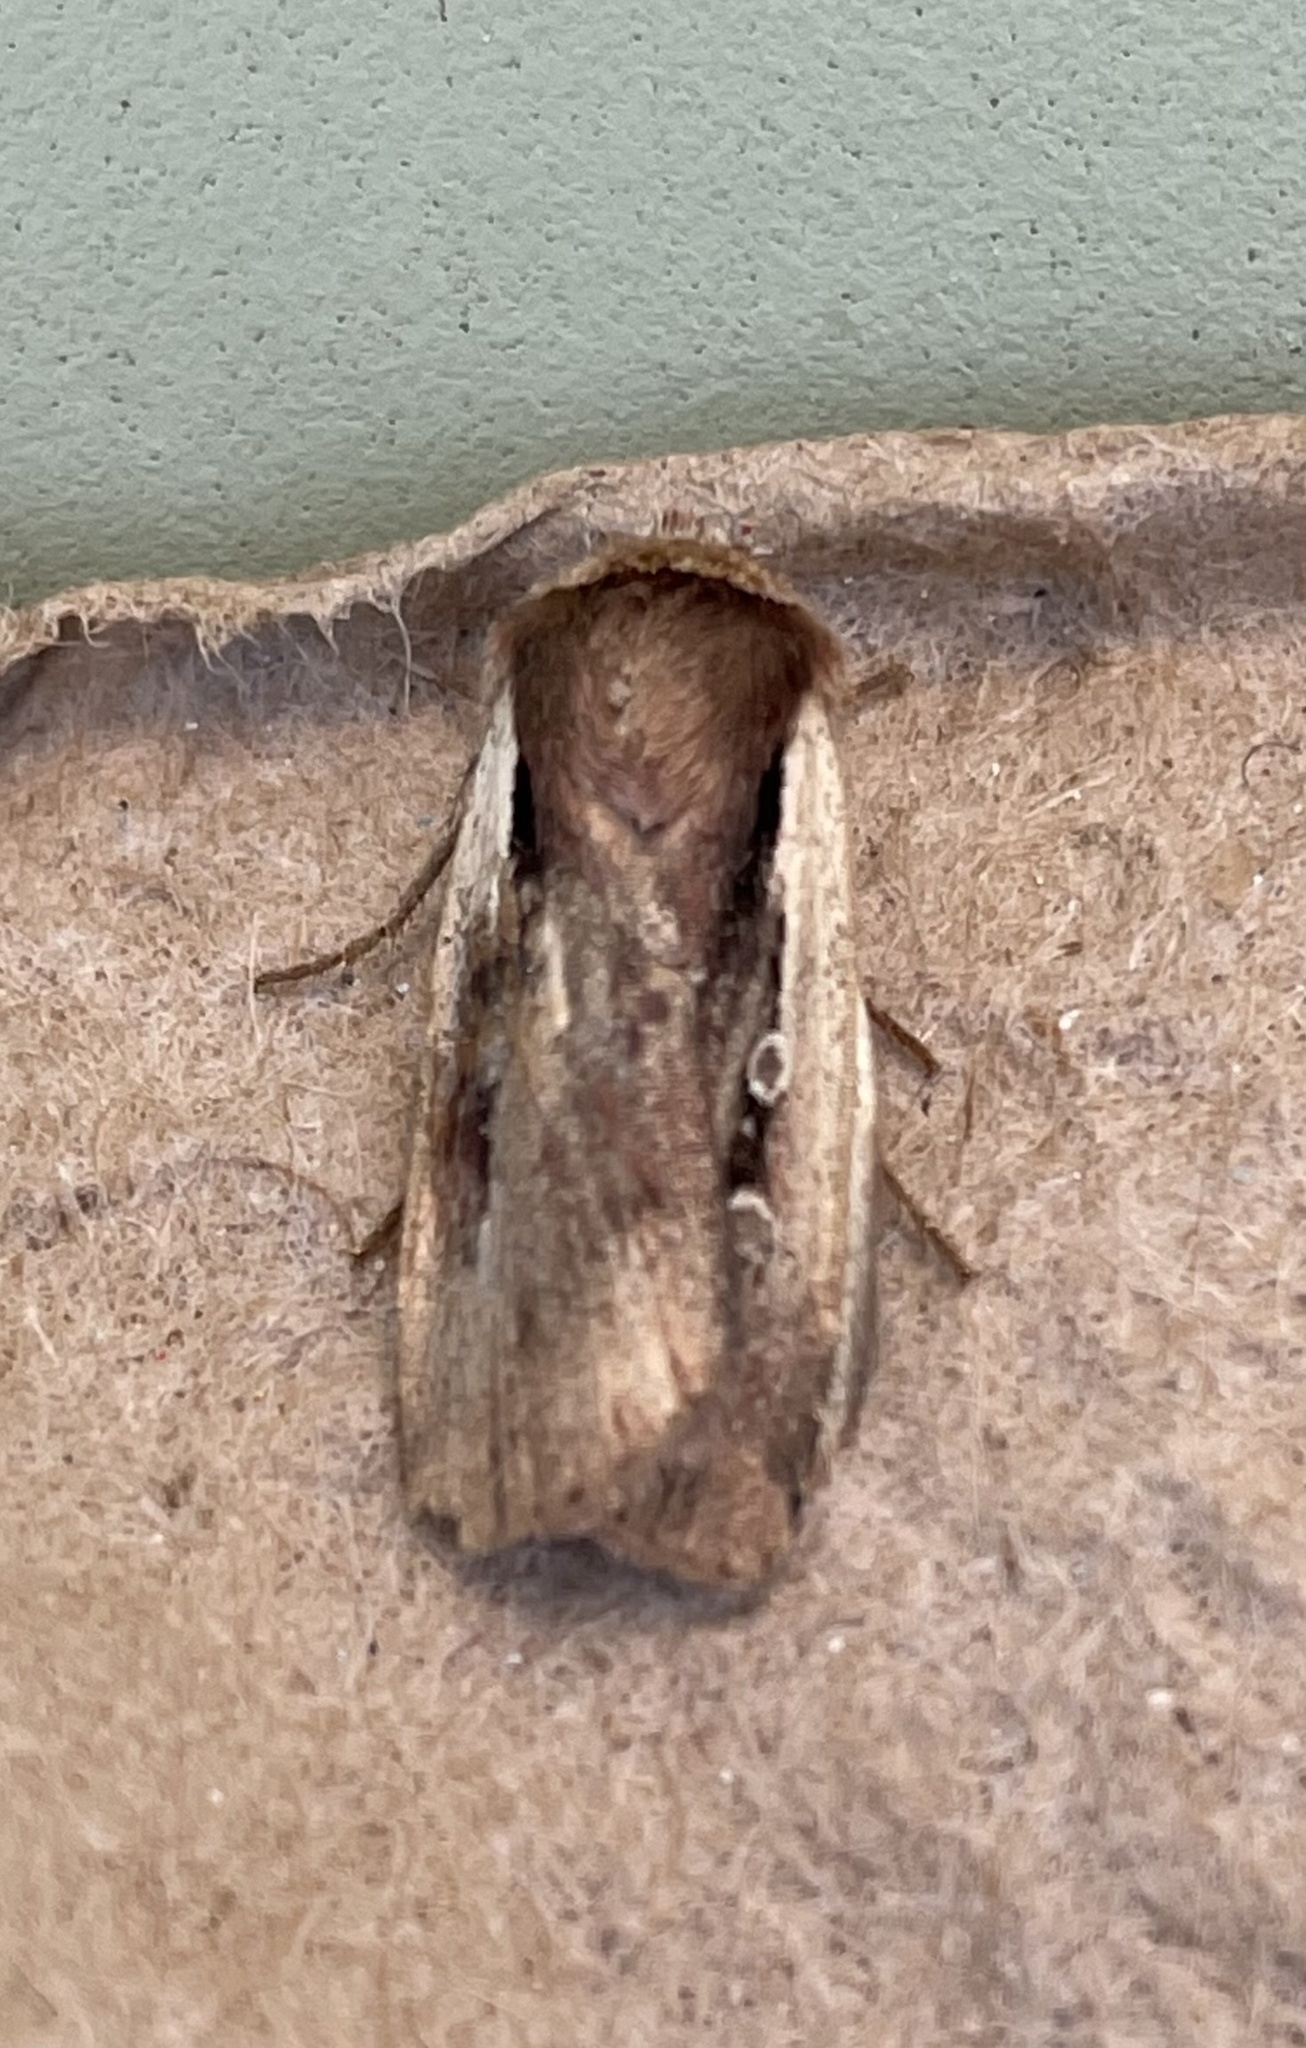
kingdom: Animalia
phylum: Arthropoda
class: Insecta
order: Lepidoptera
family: Noctuidae
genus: Ochropleura
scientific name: Ochropleura plecta
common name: Flame shoulder
